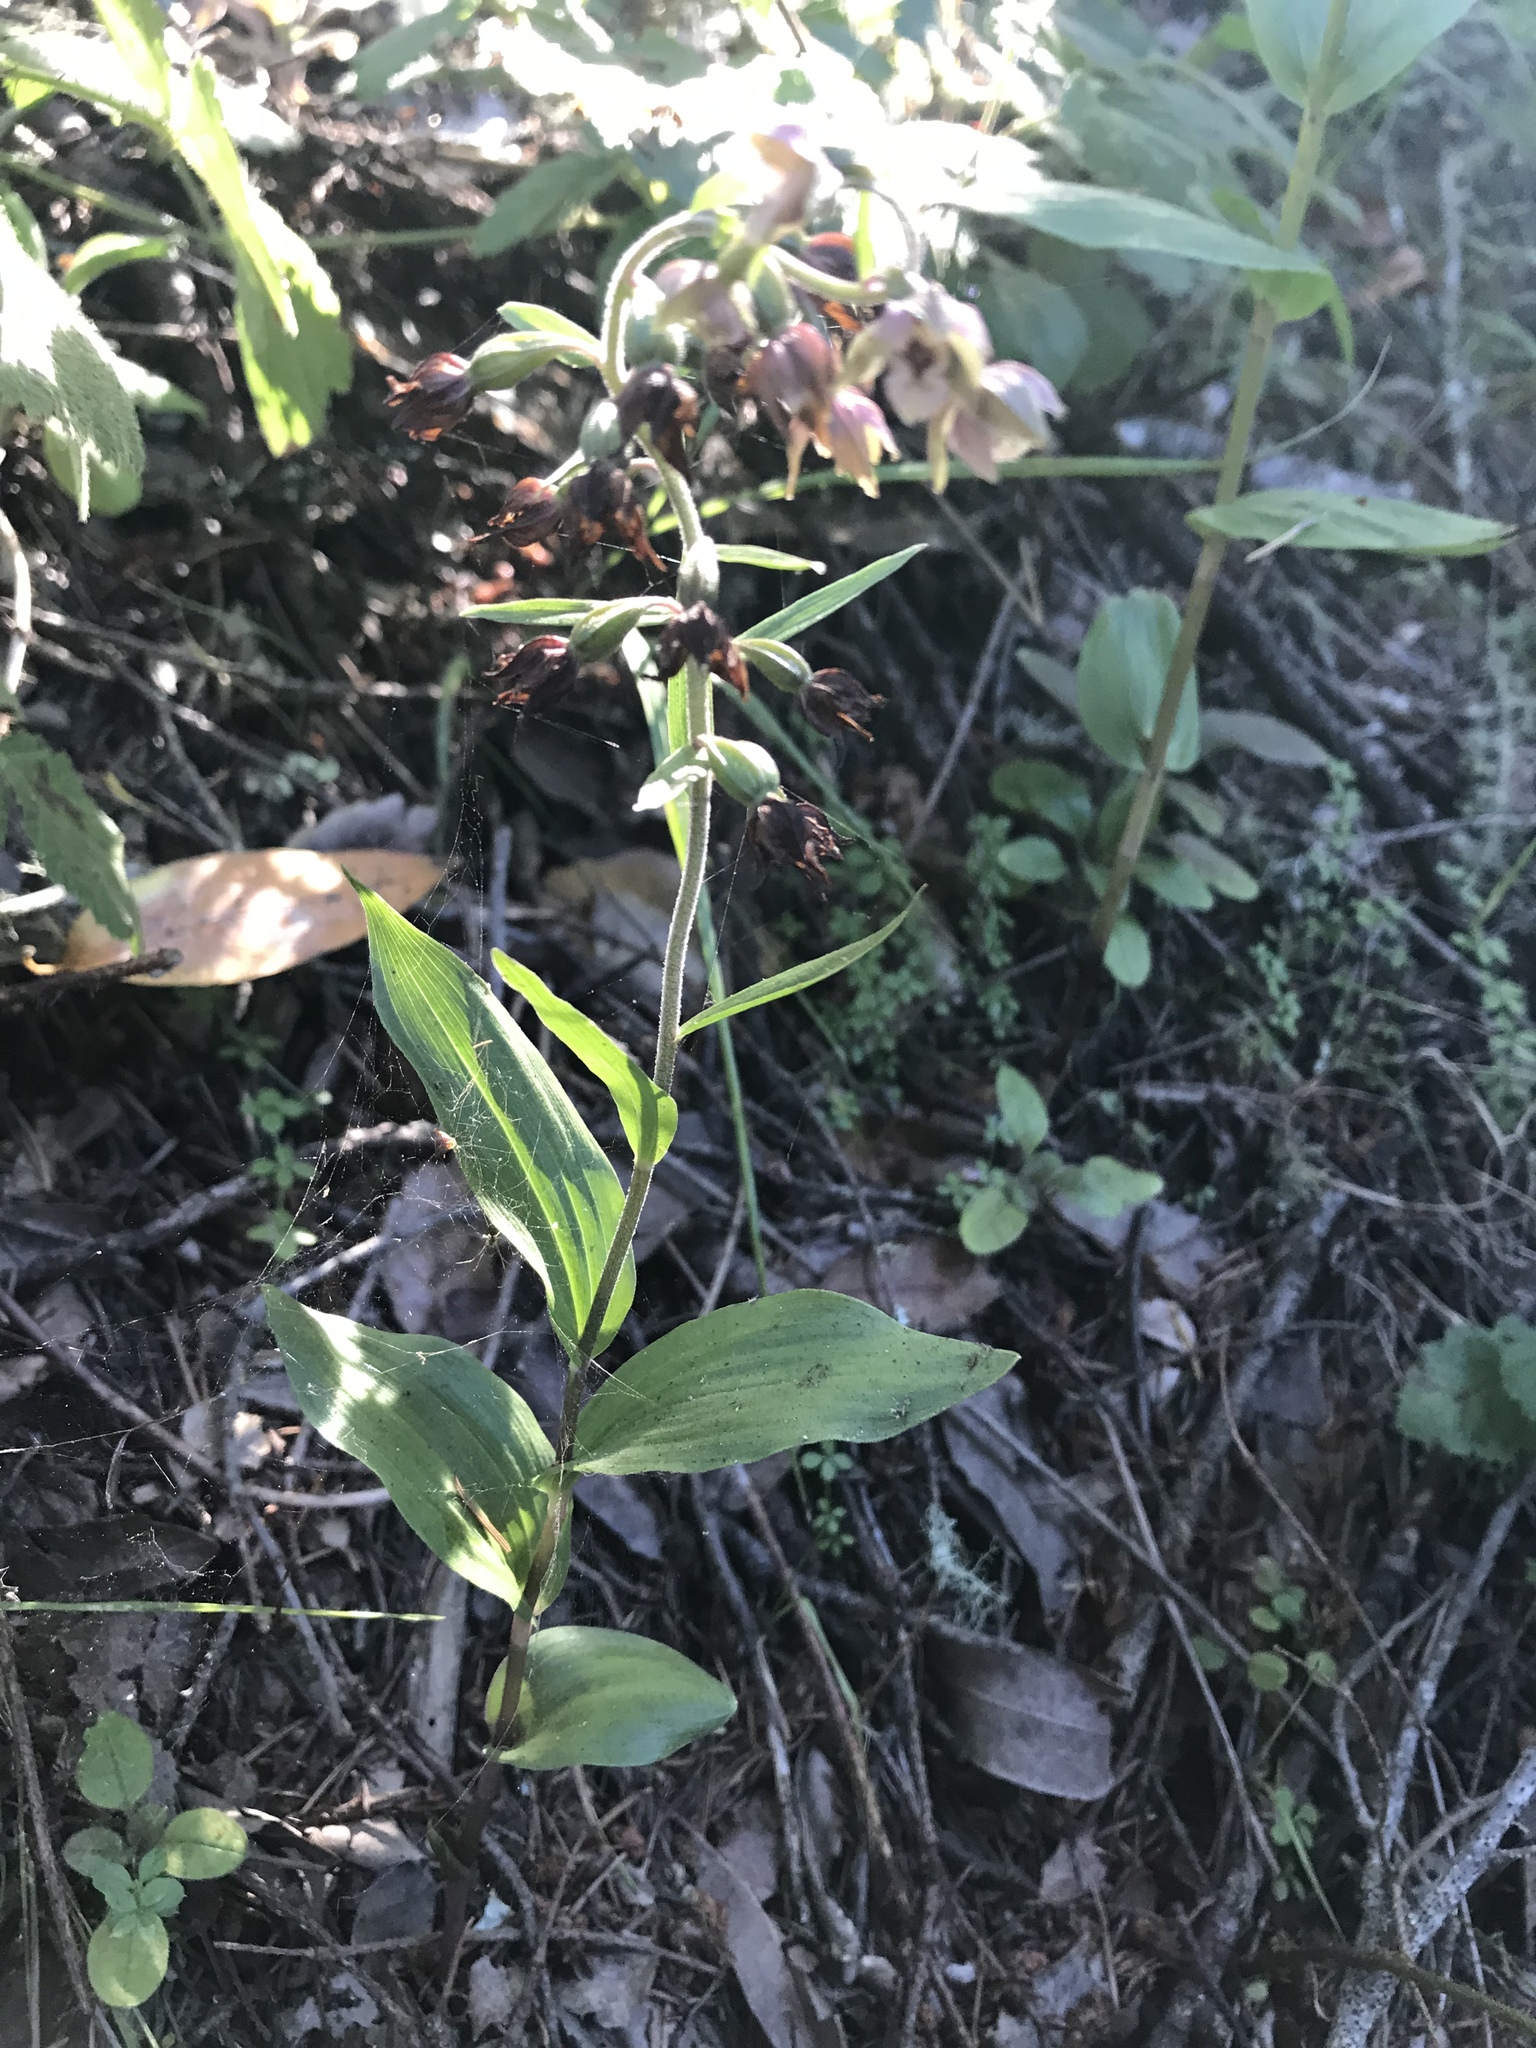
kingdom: Plantae
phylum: Tracheophyta
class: Liliopsida
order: Asparagales
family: Orchidaceae
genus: Epipactis
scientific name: Epipactis helleborine
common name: Broad-leaved helleborine
